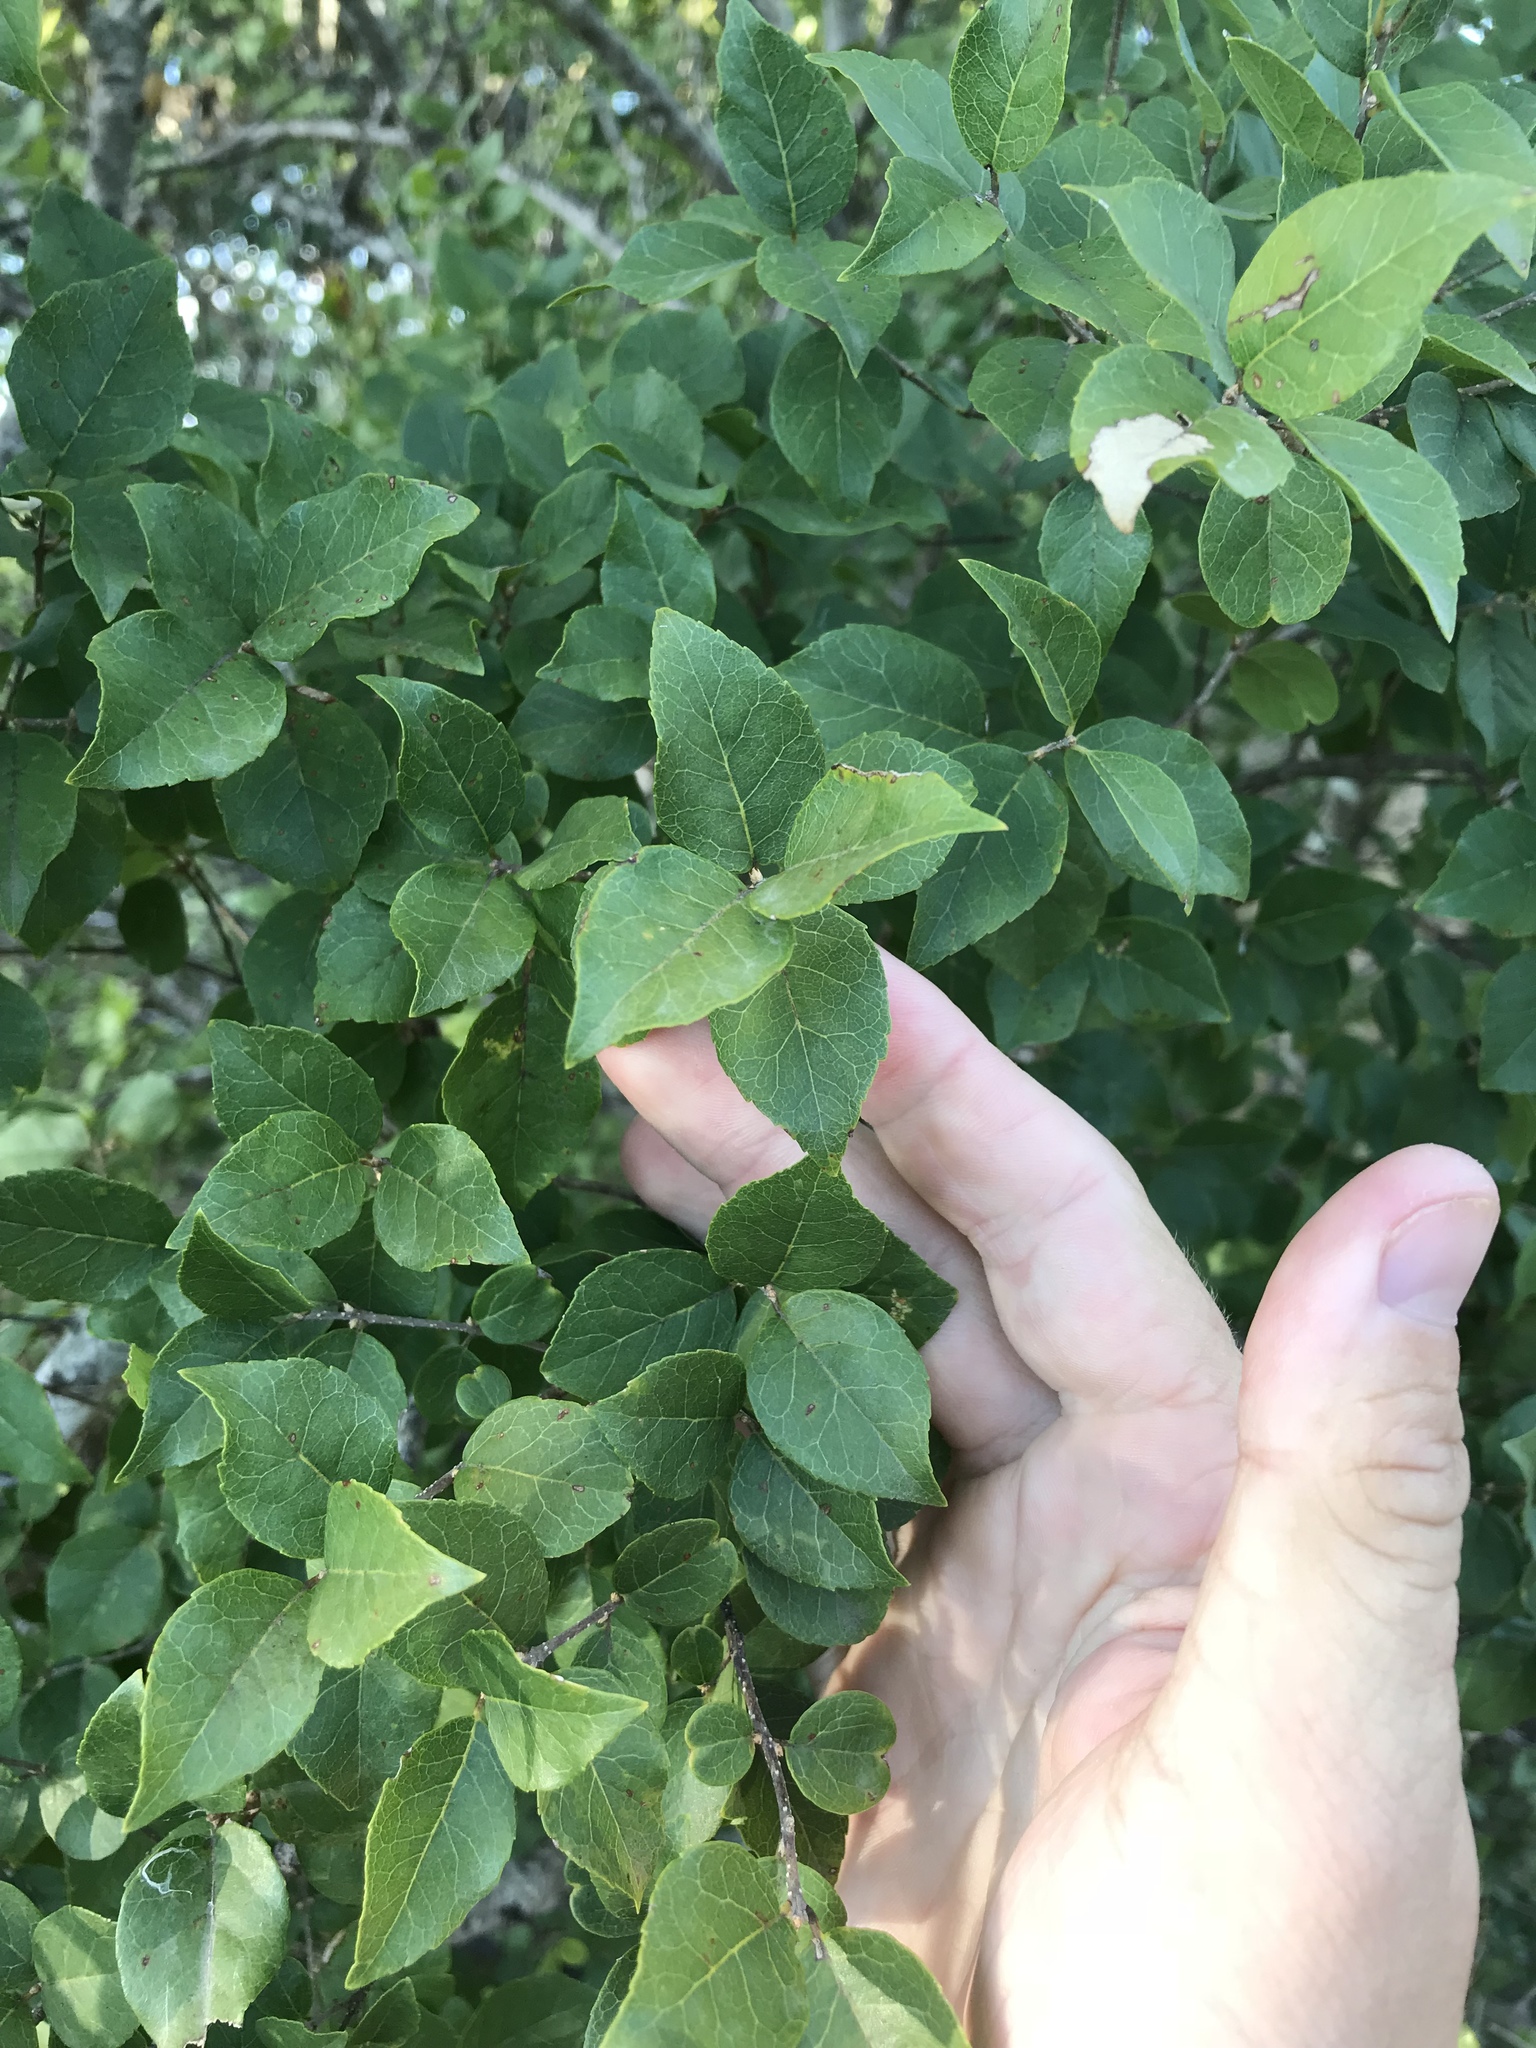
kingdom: Plantae
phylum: Tracheophyta
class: Magnoliopsida
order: Lamiales
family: Oleaceae
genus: Forestiera
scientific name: Forestiera reticulata
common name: Netleaf swamp-privet
